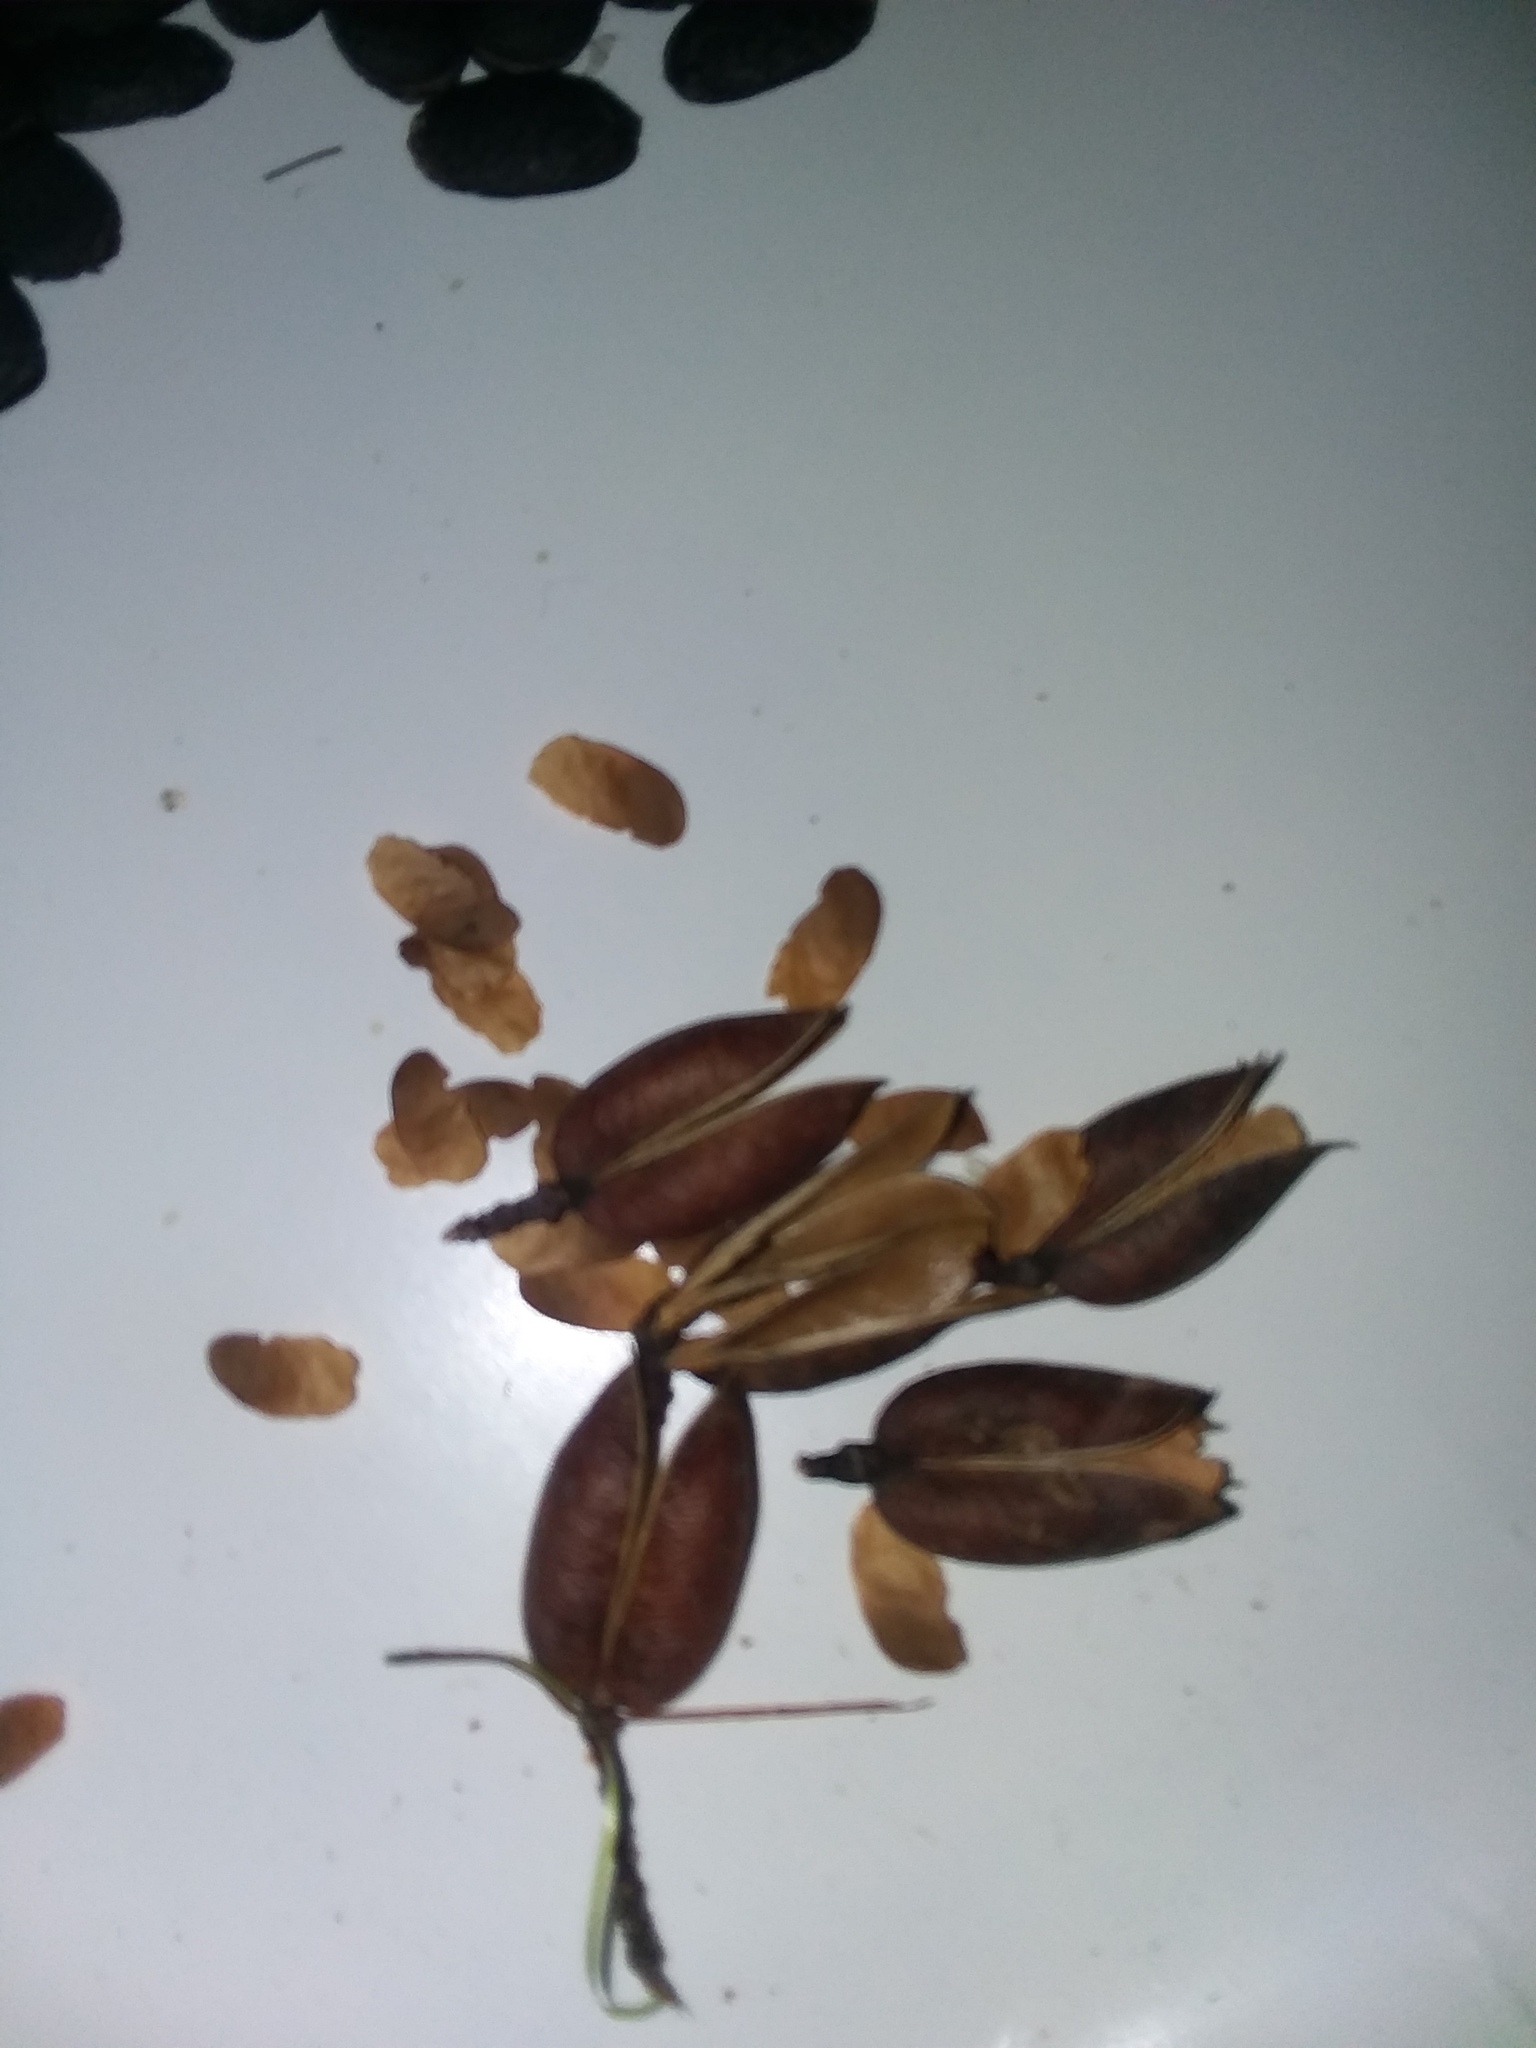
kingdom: Plantae
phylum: Tracheophyta
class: Magnoliopsida
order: Gentianales
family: Gelsemiaceae
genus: Gelsemium
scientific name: Gelsemium sempervirens
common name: Carolina-jasmine
